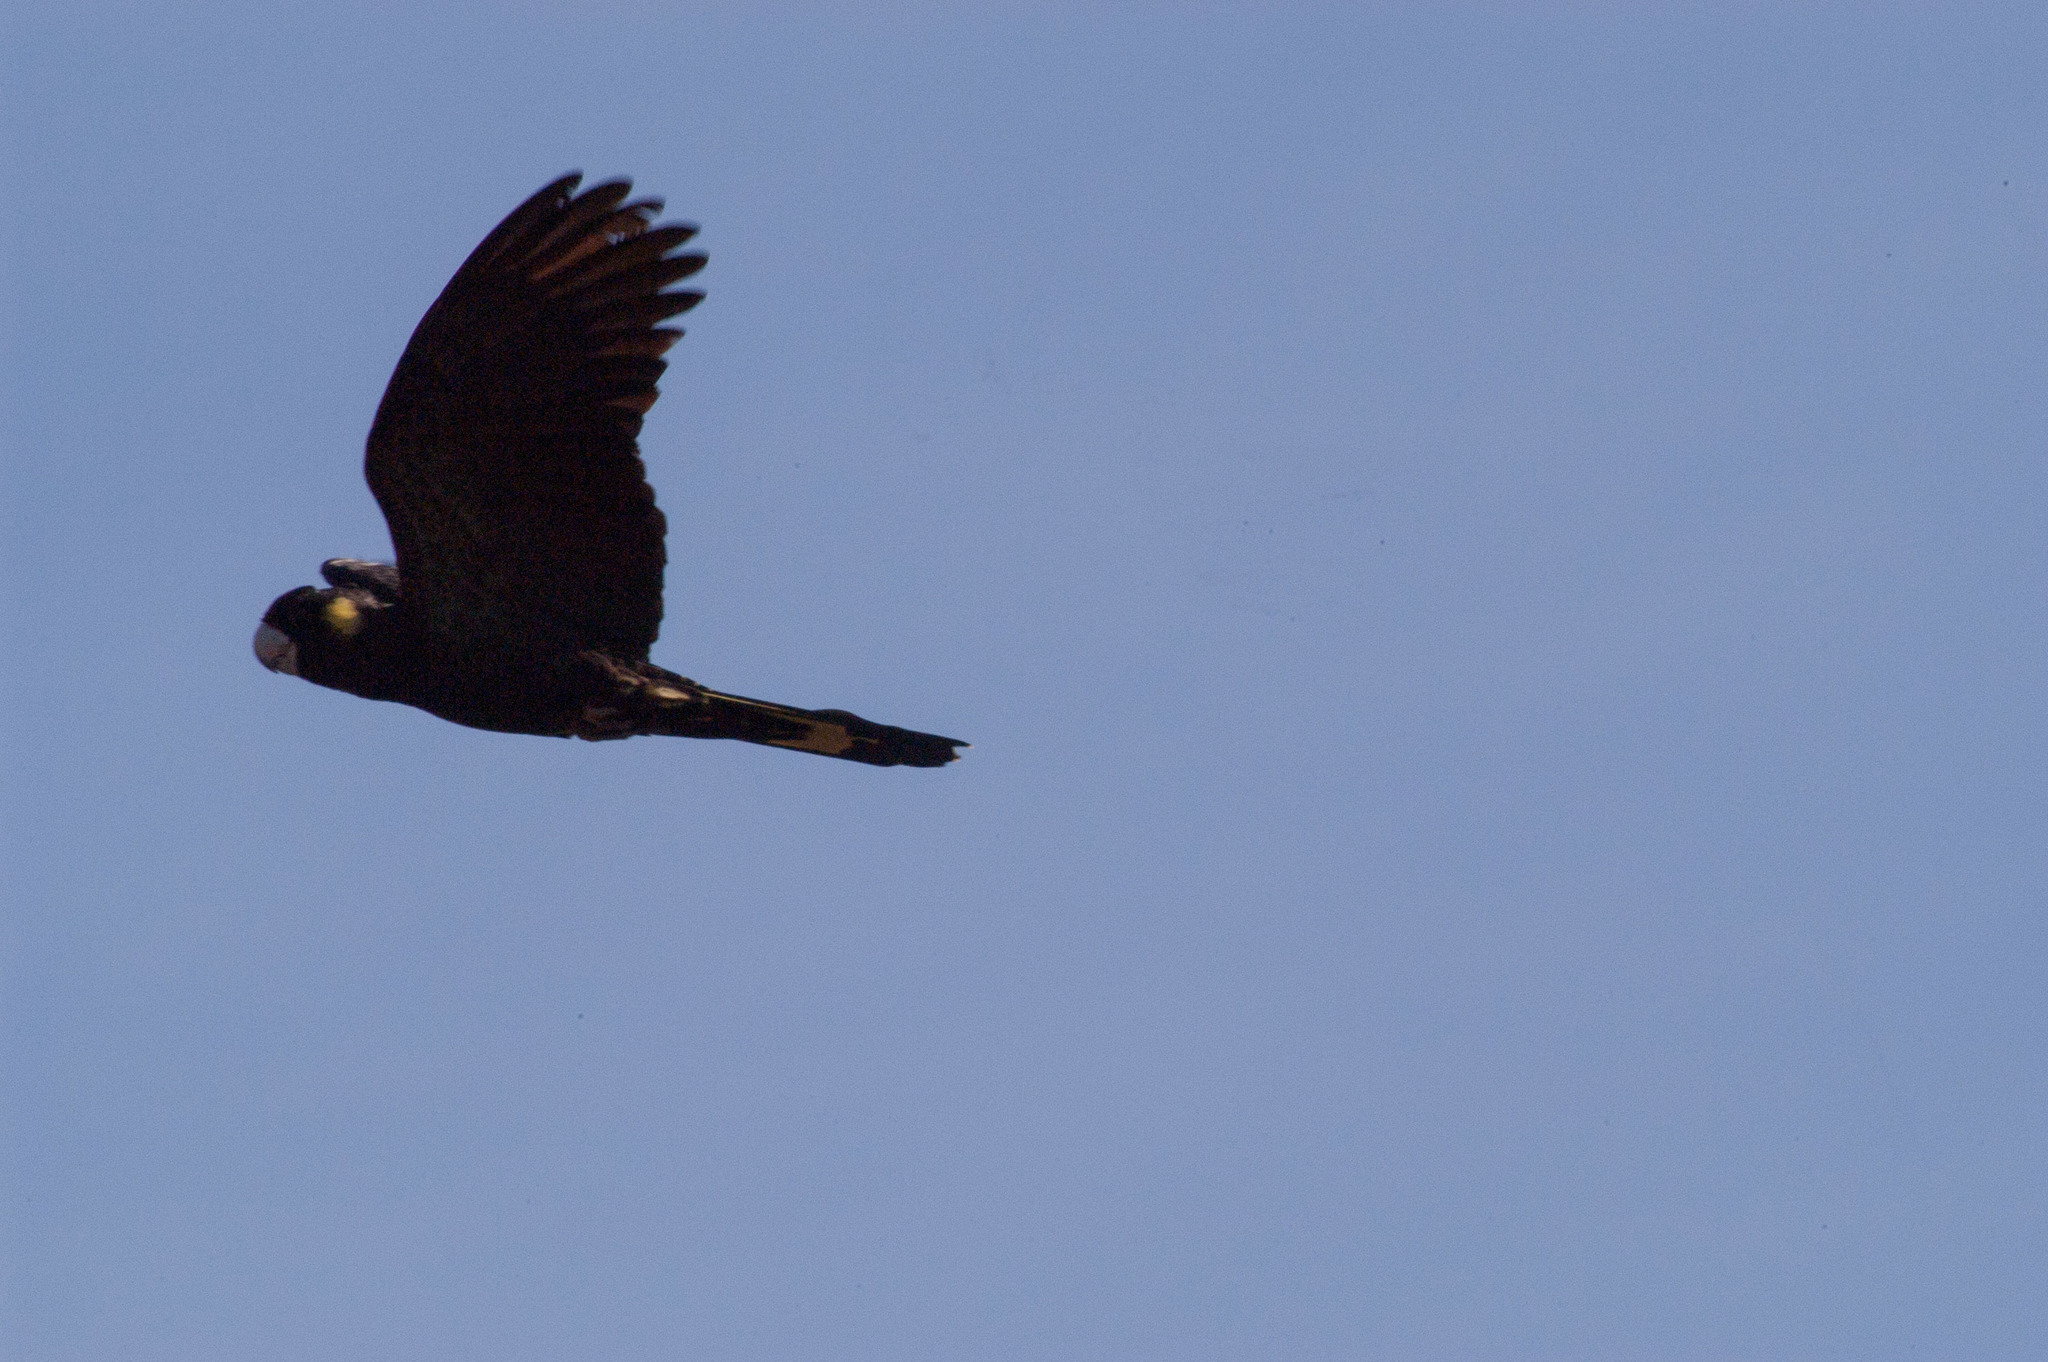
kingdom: Animalia
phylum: Chordata
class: Aves
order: Psittaciformes
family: Cacatuidae
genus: Zanda
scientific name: Zanda funerea
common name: Yellow-tailed black-cockatoo
